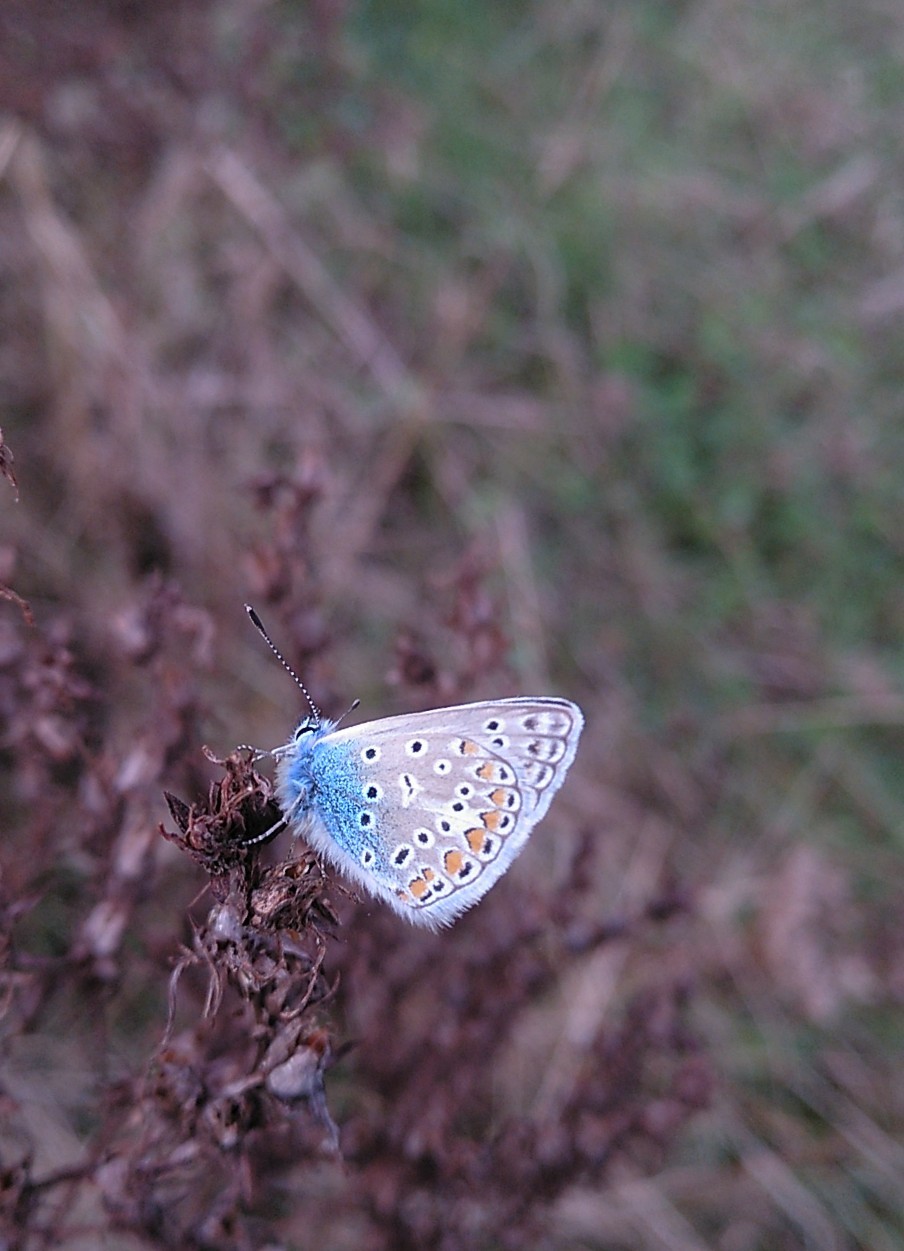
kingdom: Animalia
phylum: Arthropoda
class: Insecta
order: Lepidoptera
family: Lycaenidae
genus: Polyommatus
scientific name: Polyommatus icarus
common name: Common blue
